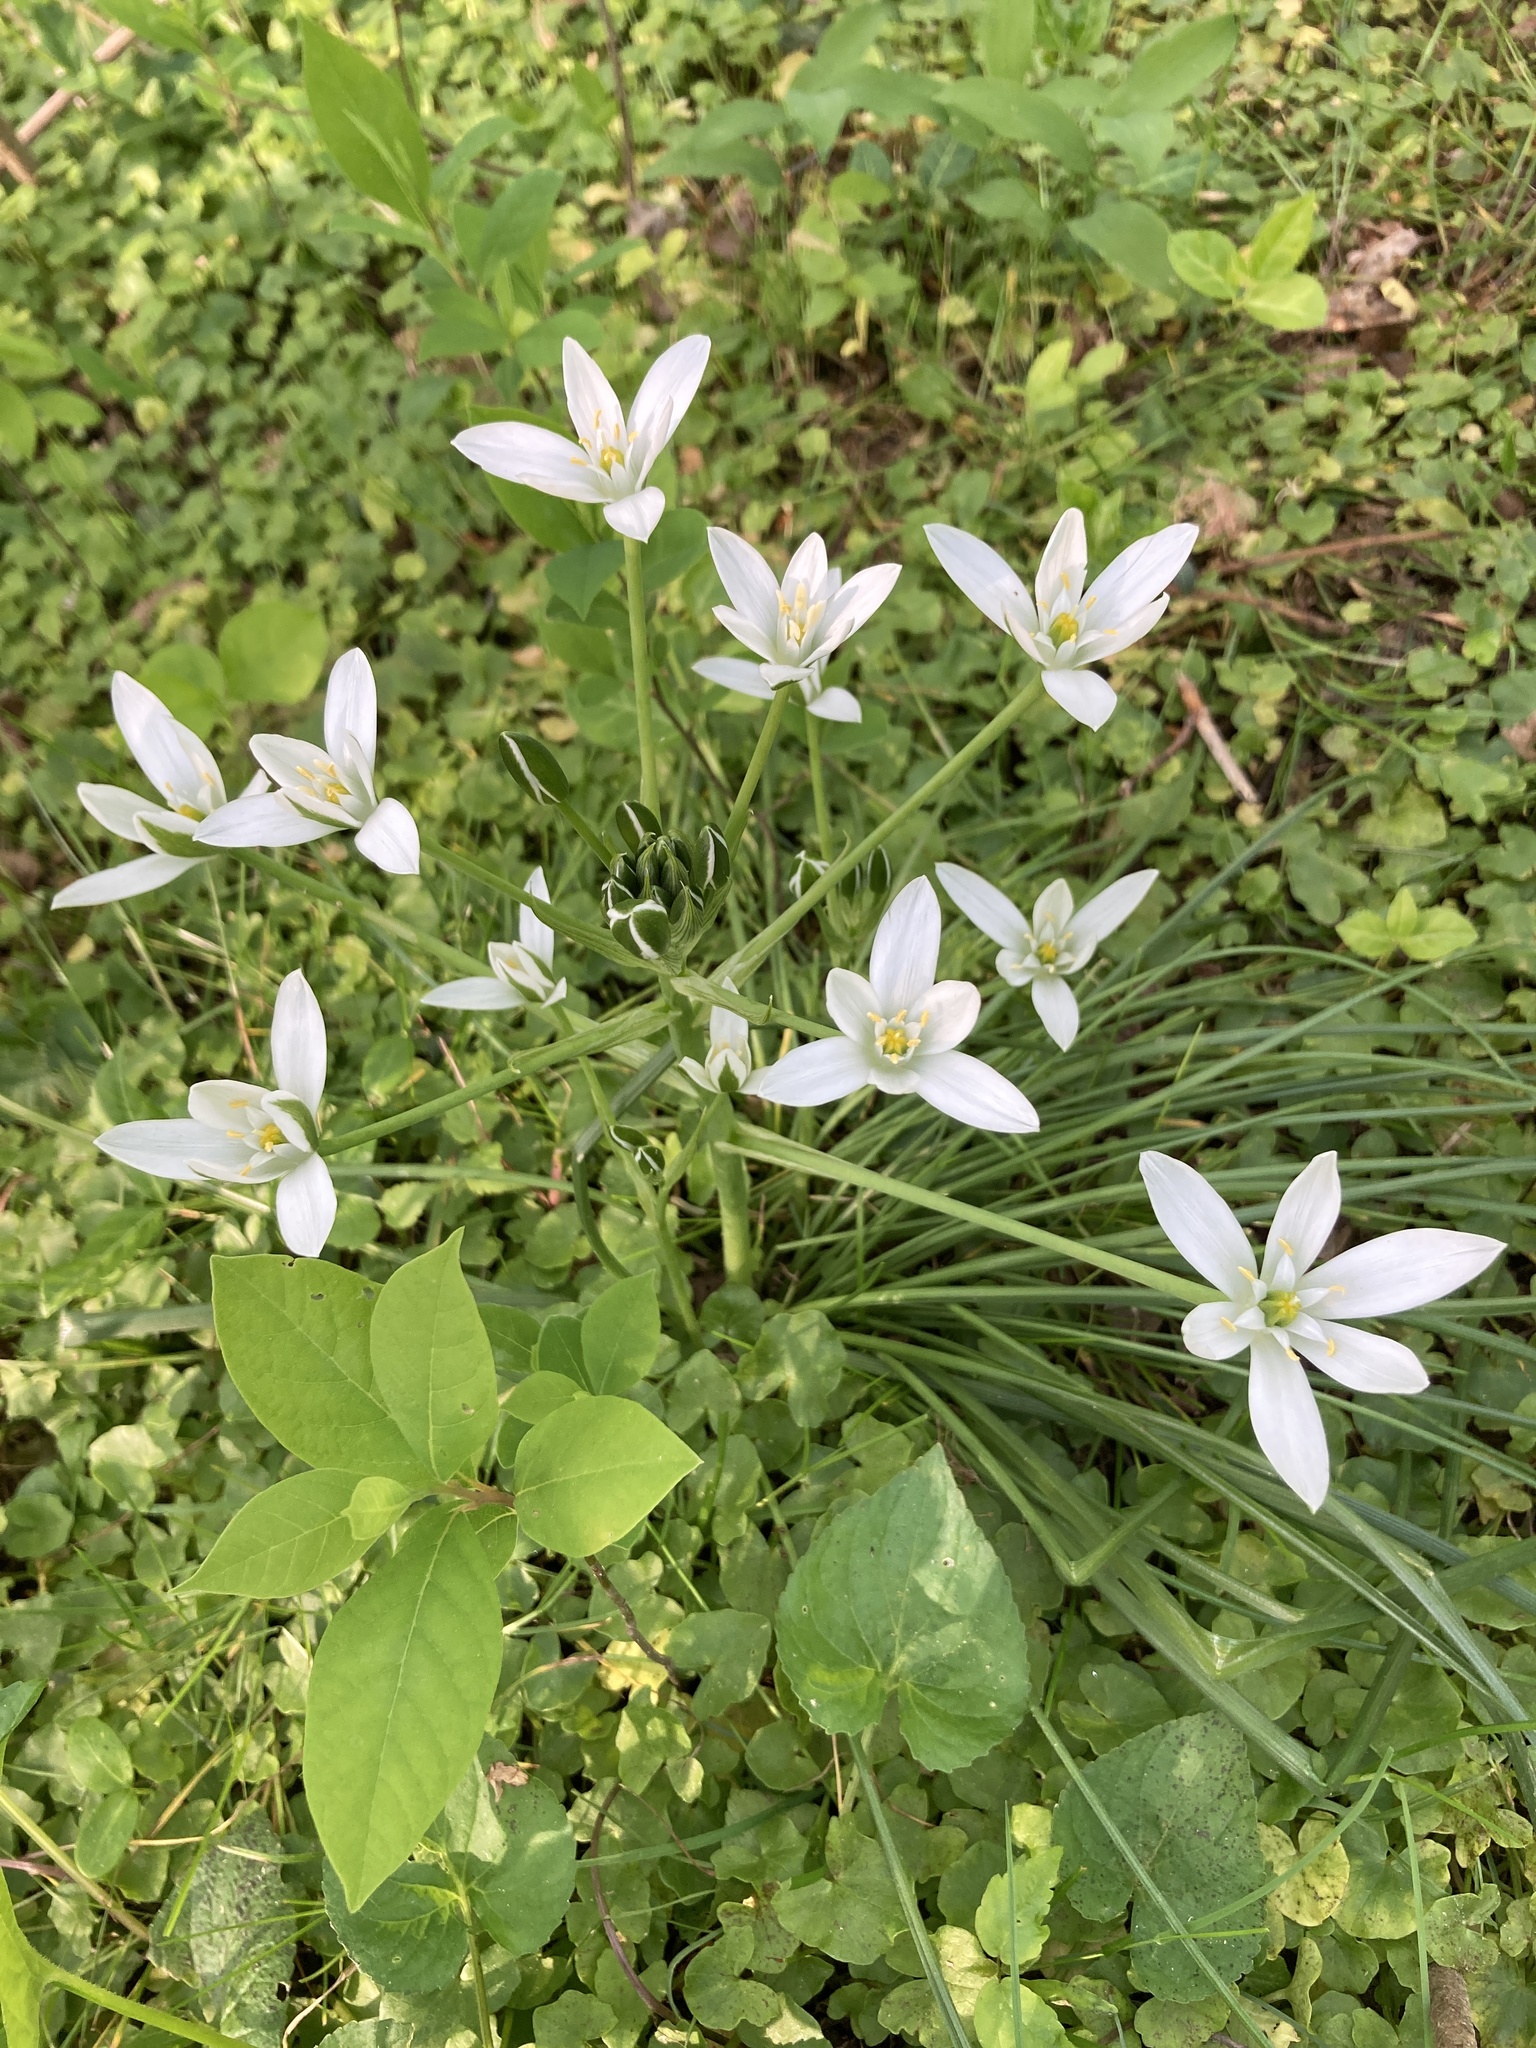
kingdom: Plantae
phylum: Tracheophyta
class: Liliopsida
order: Asparagales
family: Asparagaceae
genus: Ornithogalum
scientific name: Ornithogalum umbellatum
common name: Garden star-of-bethlehem
